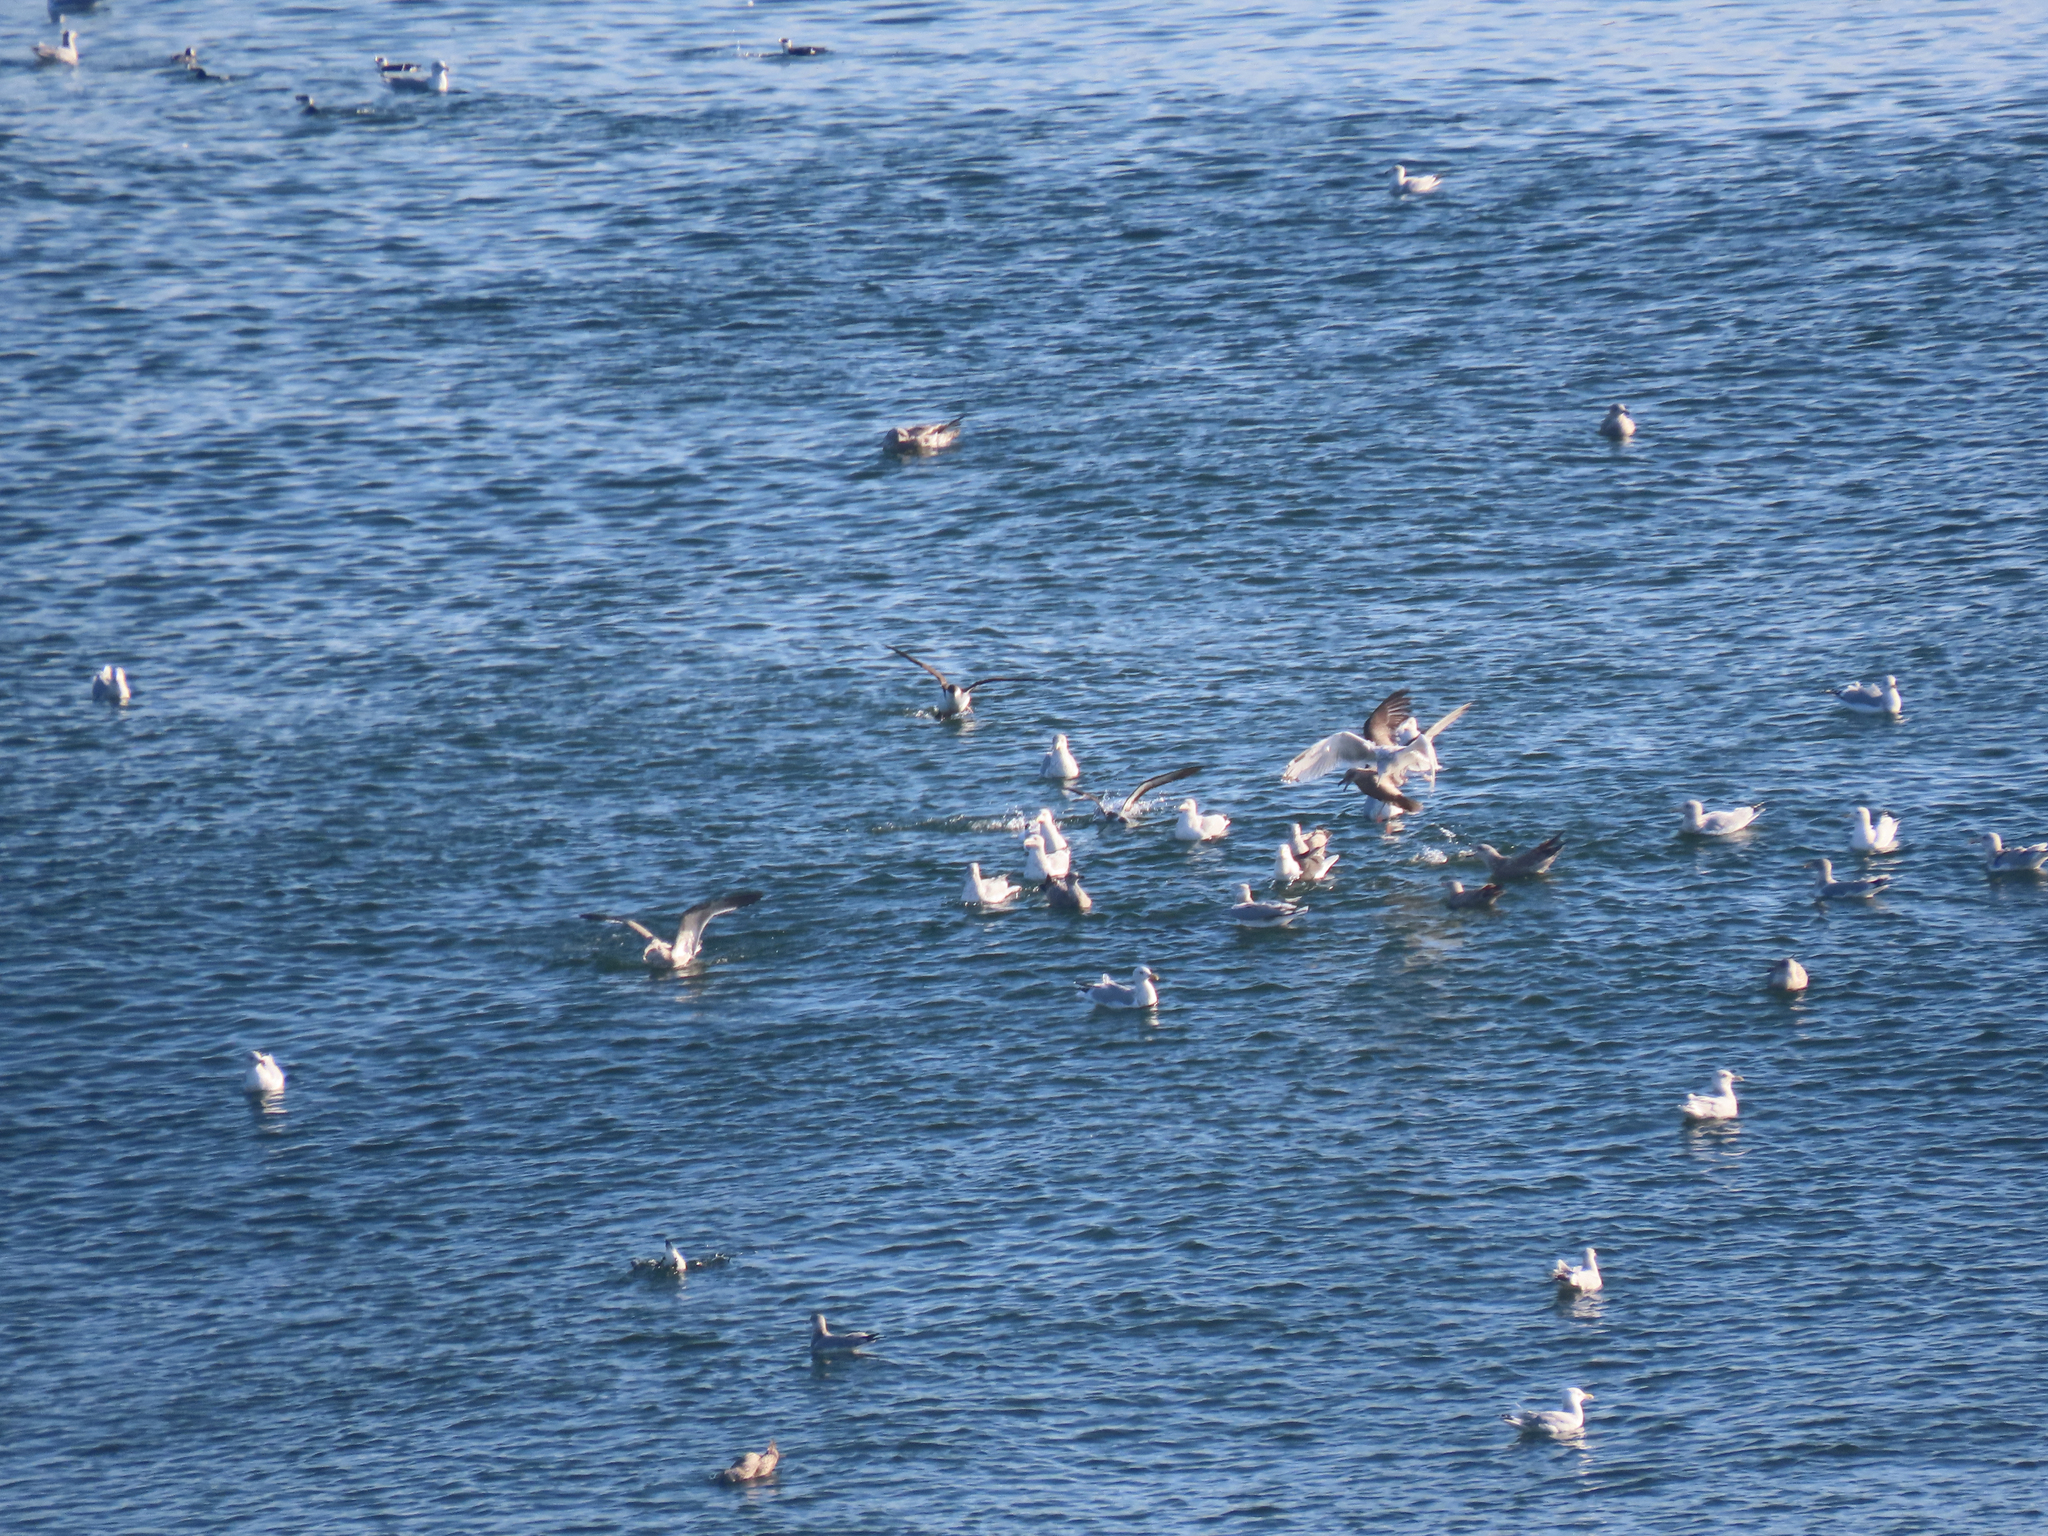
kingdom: Animalia
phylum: Chordata
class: Aves
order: Procellariiformes
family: Procellariidae
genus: Puffinus
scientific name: Puffinus gravis
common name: Great shearwater
